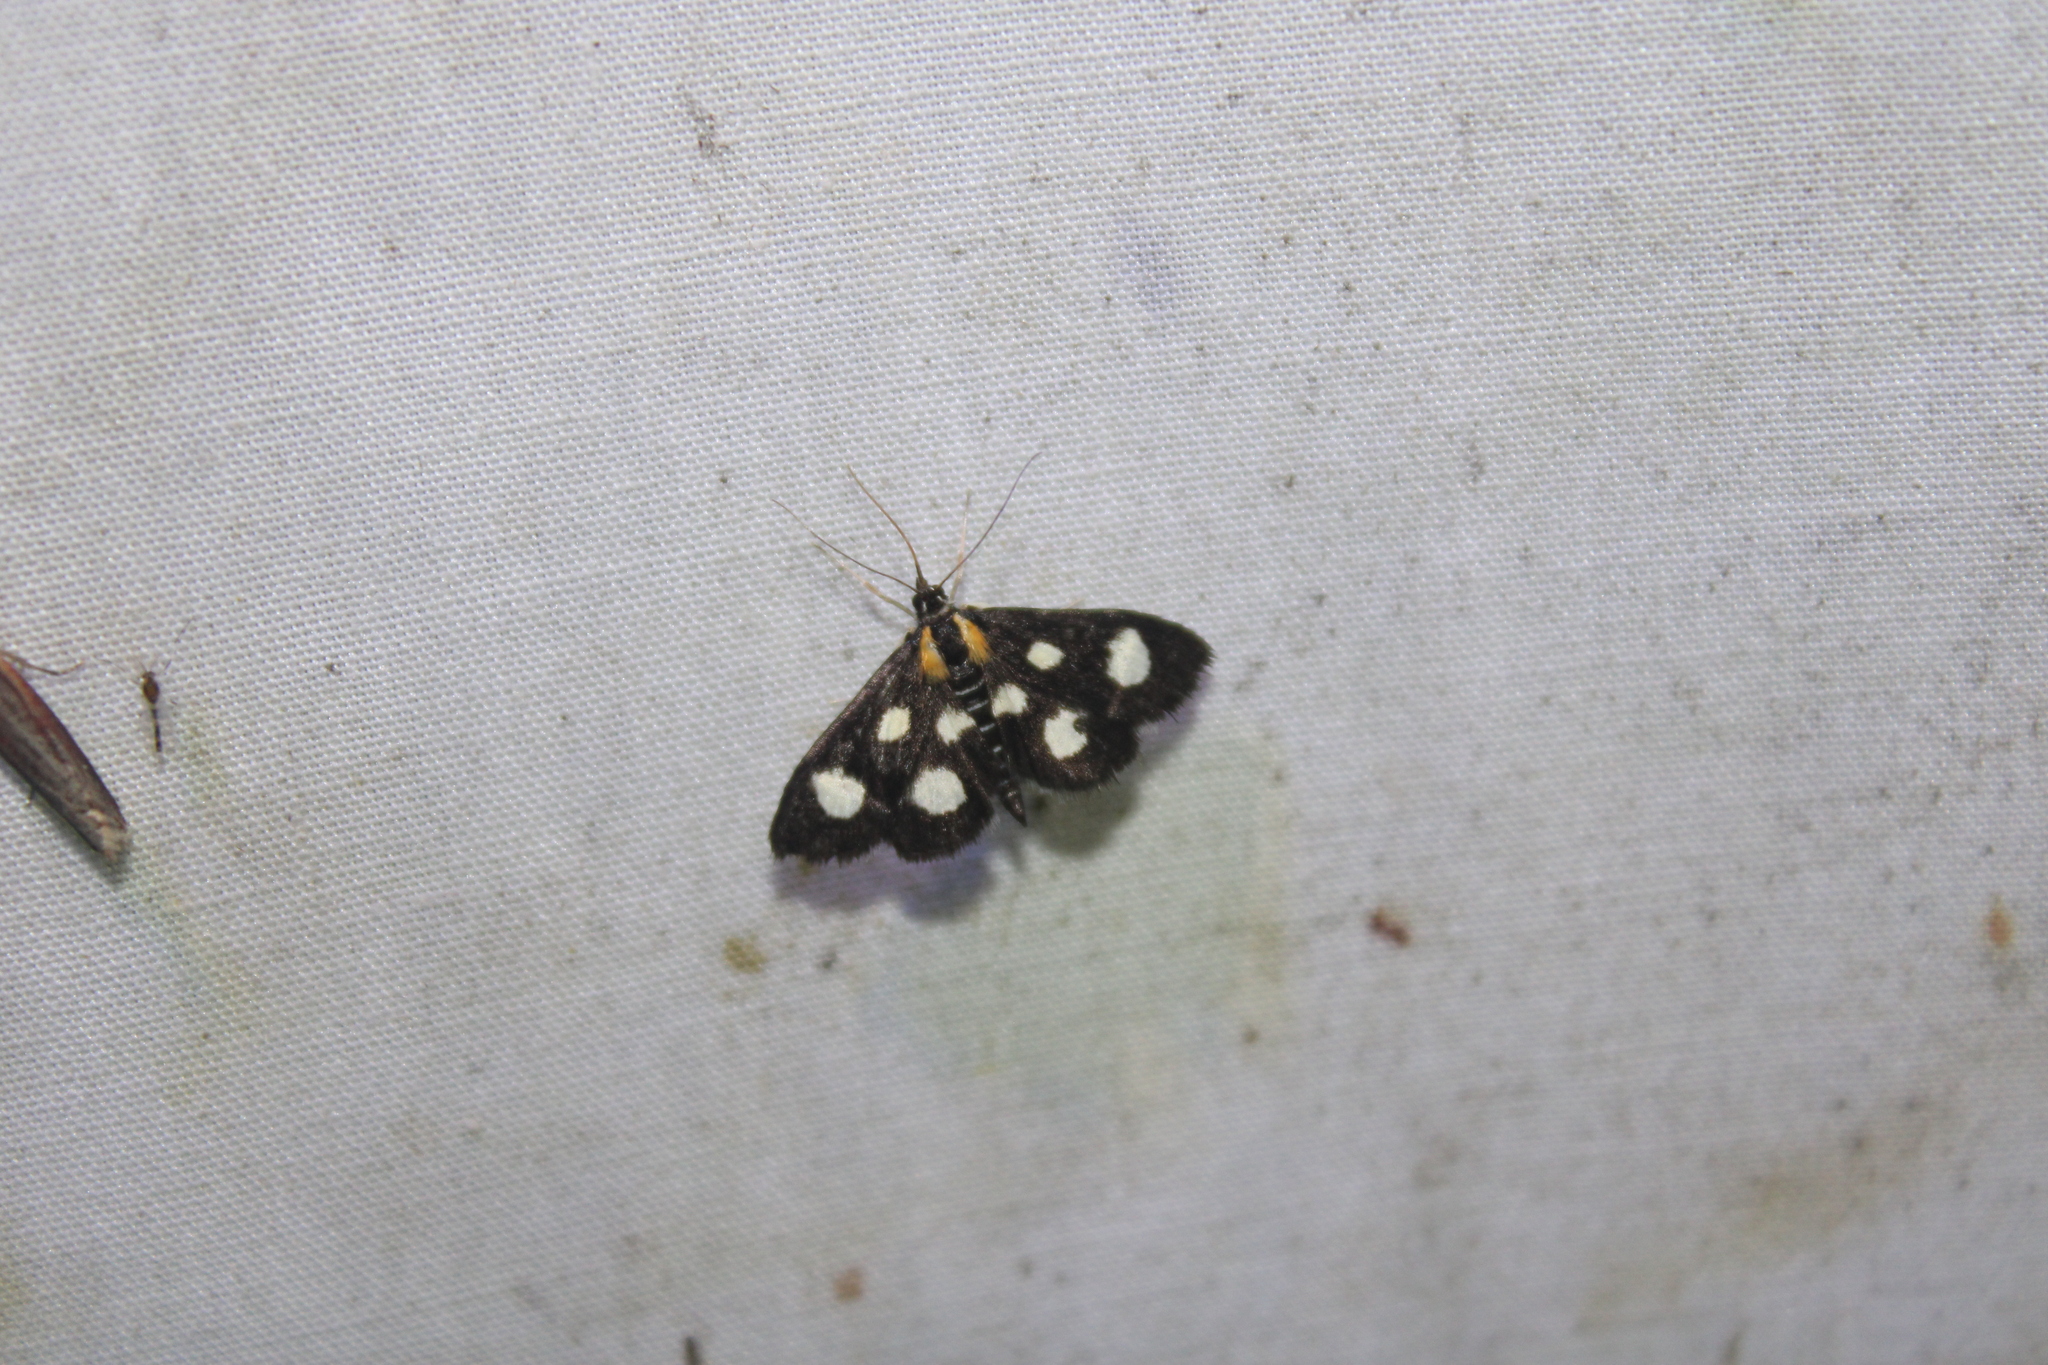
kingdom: Animalia
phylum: Arthropoda
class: Insecta
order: Lepidoptera
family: Crambidae
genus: Anania
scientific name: Anania funebris
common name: White-spotted sable moth
